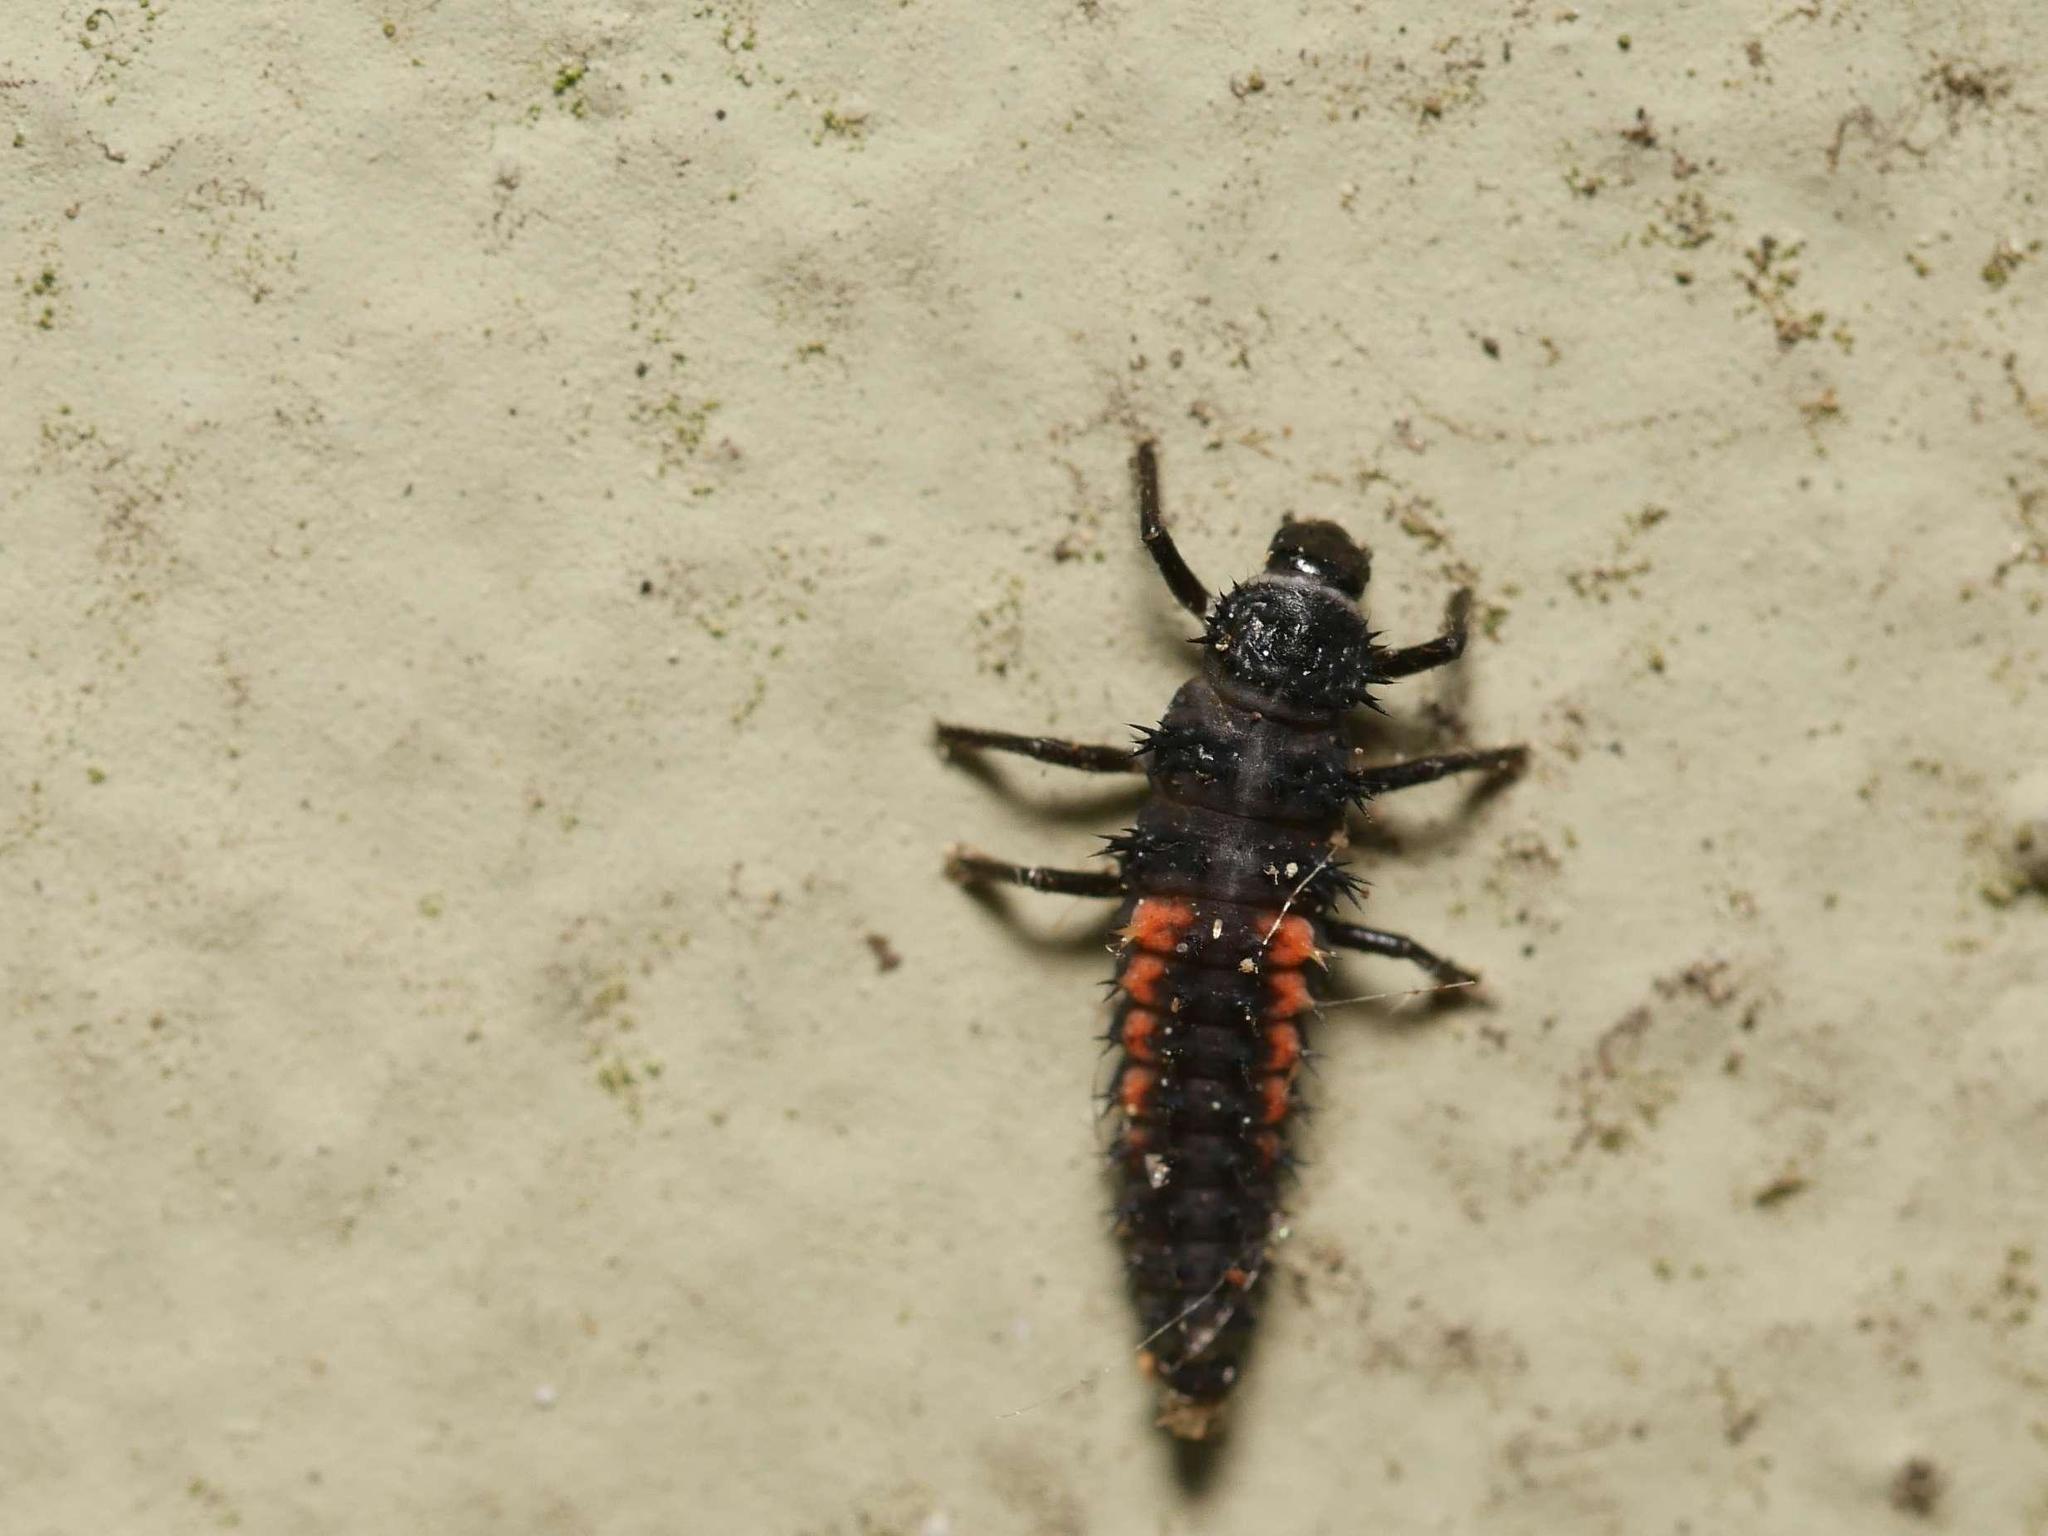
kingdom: Animalia
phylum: Arthropoda
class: Insecta
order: Coleoptera
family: Coccinellidae
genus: Harmonia
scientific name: Harmonia axyridis
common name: Harlequin ladybird
